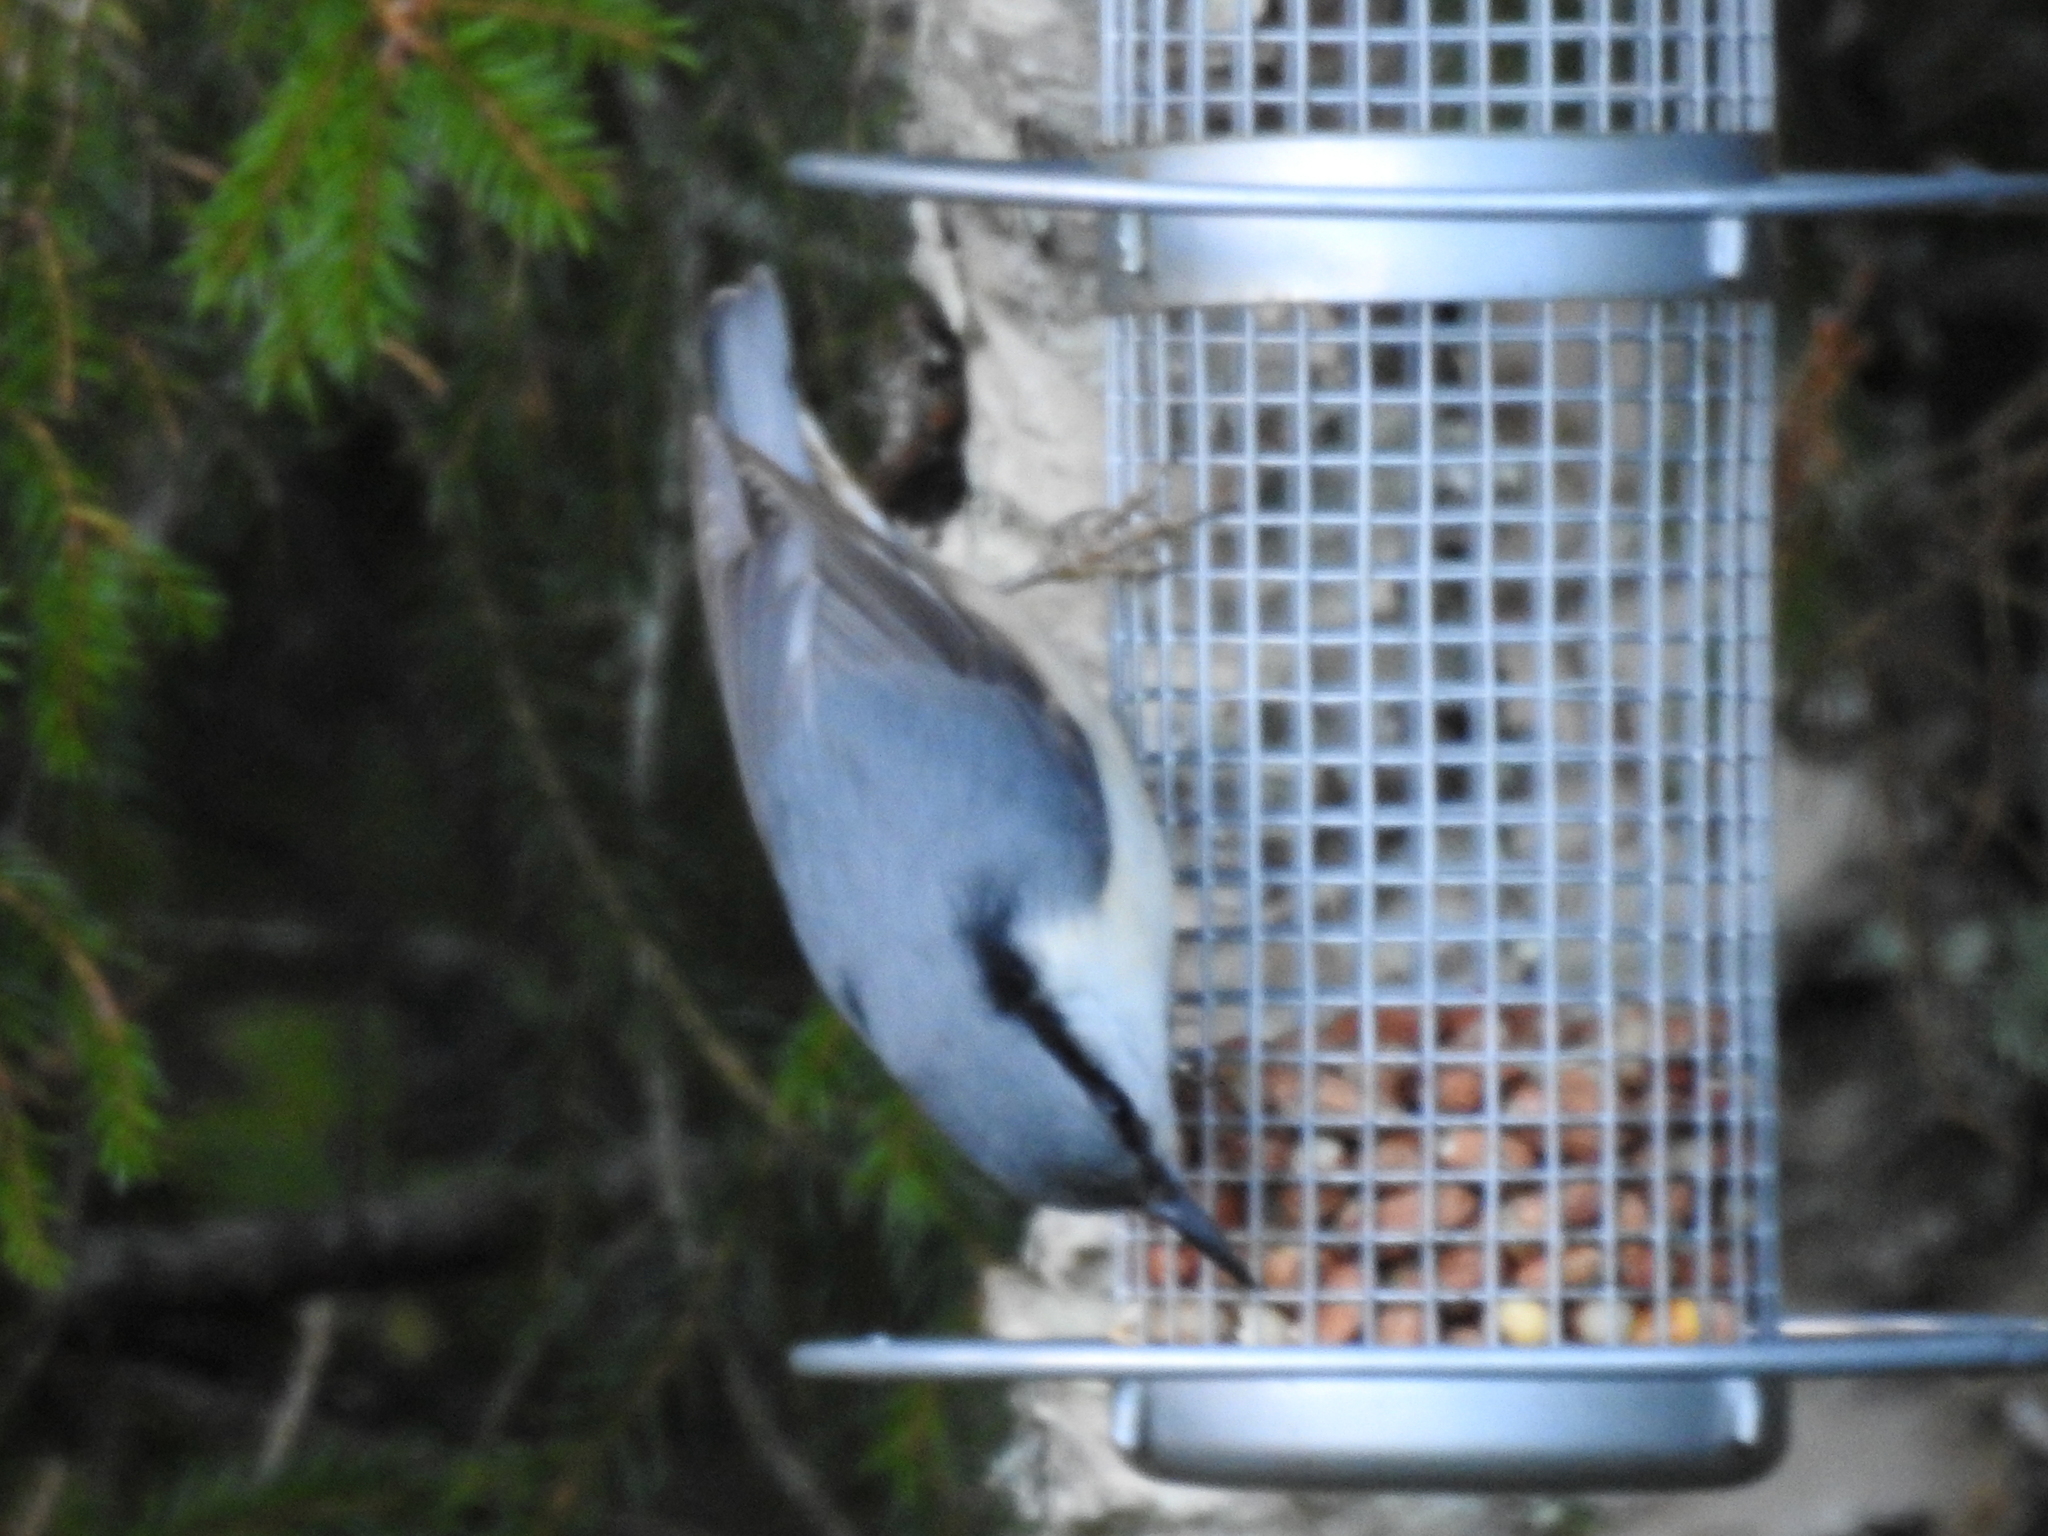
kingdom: Animalia
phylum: Chordata
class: Aves
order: Passeriformes
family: Sittidae
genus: Sitta
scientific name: Sitta europaea
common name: Eurasian nuthatch
